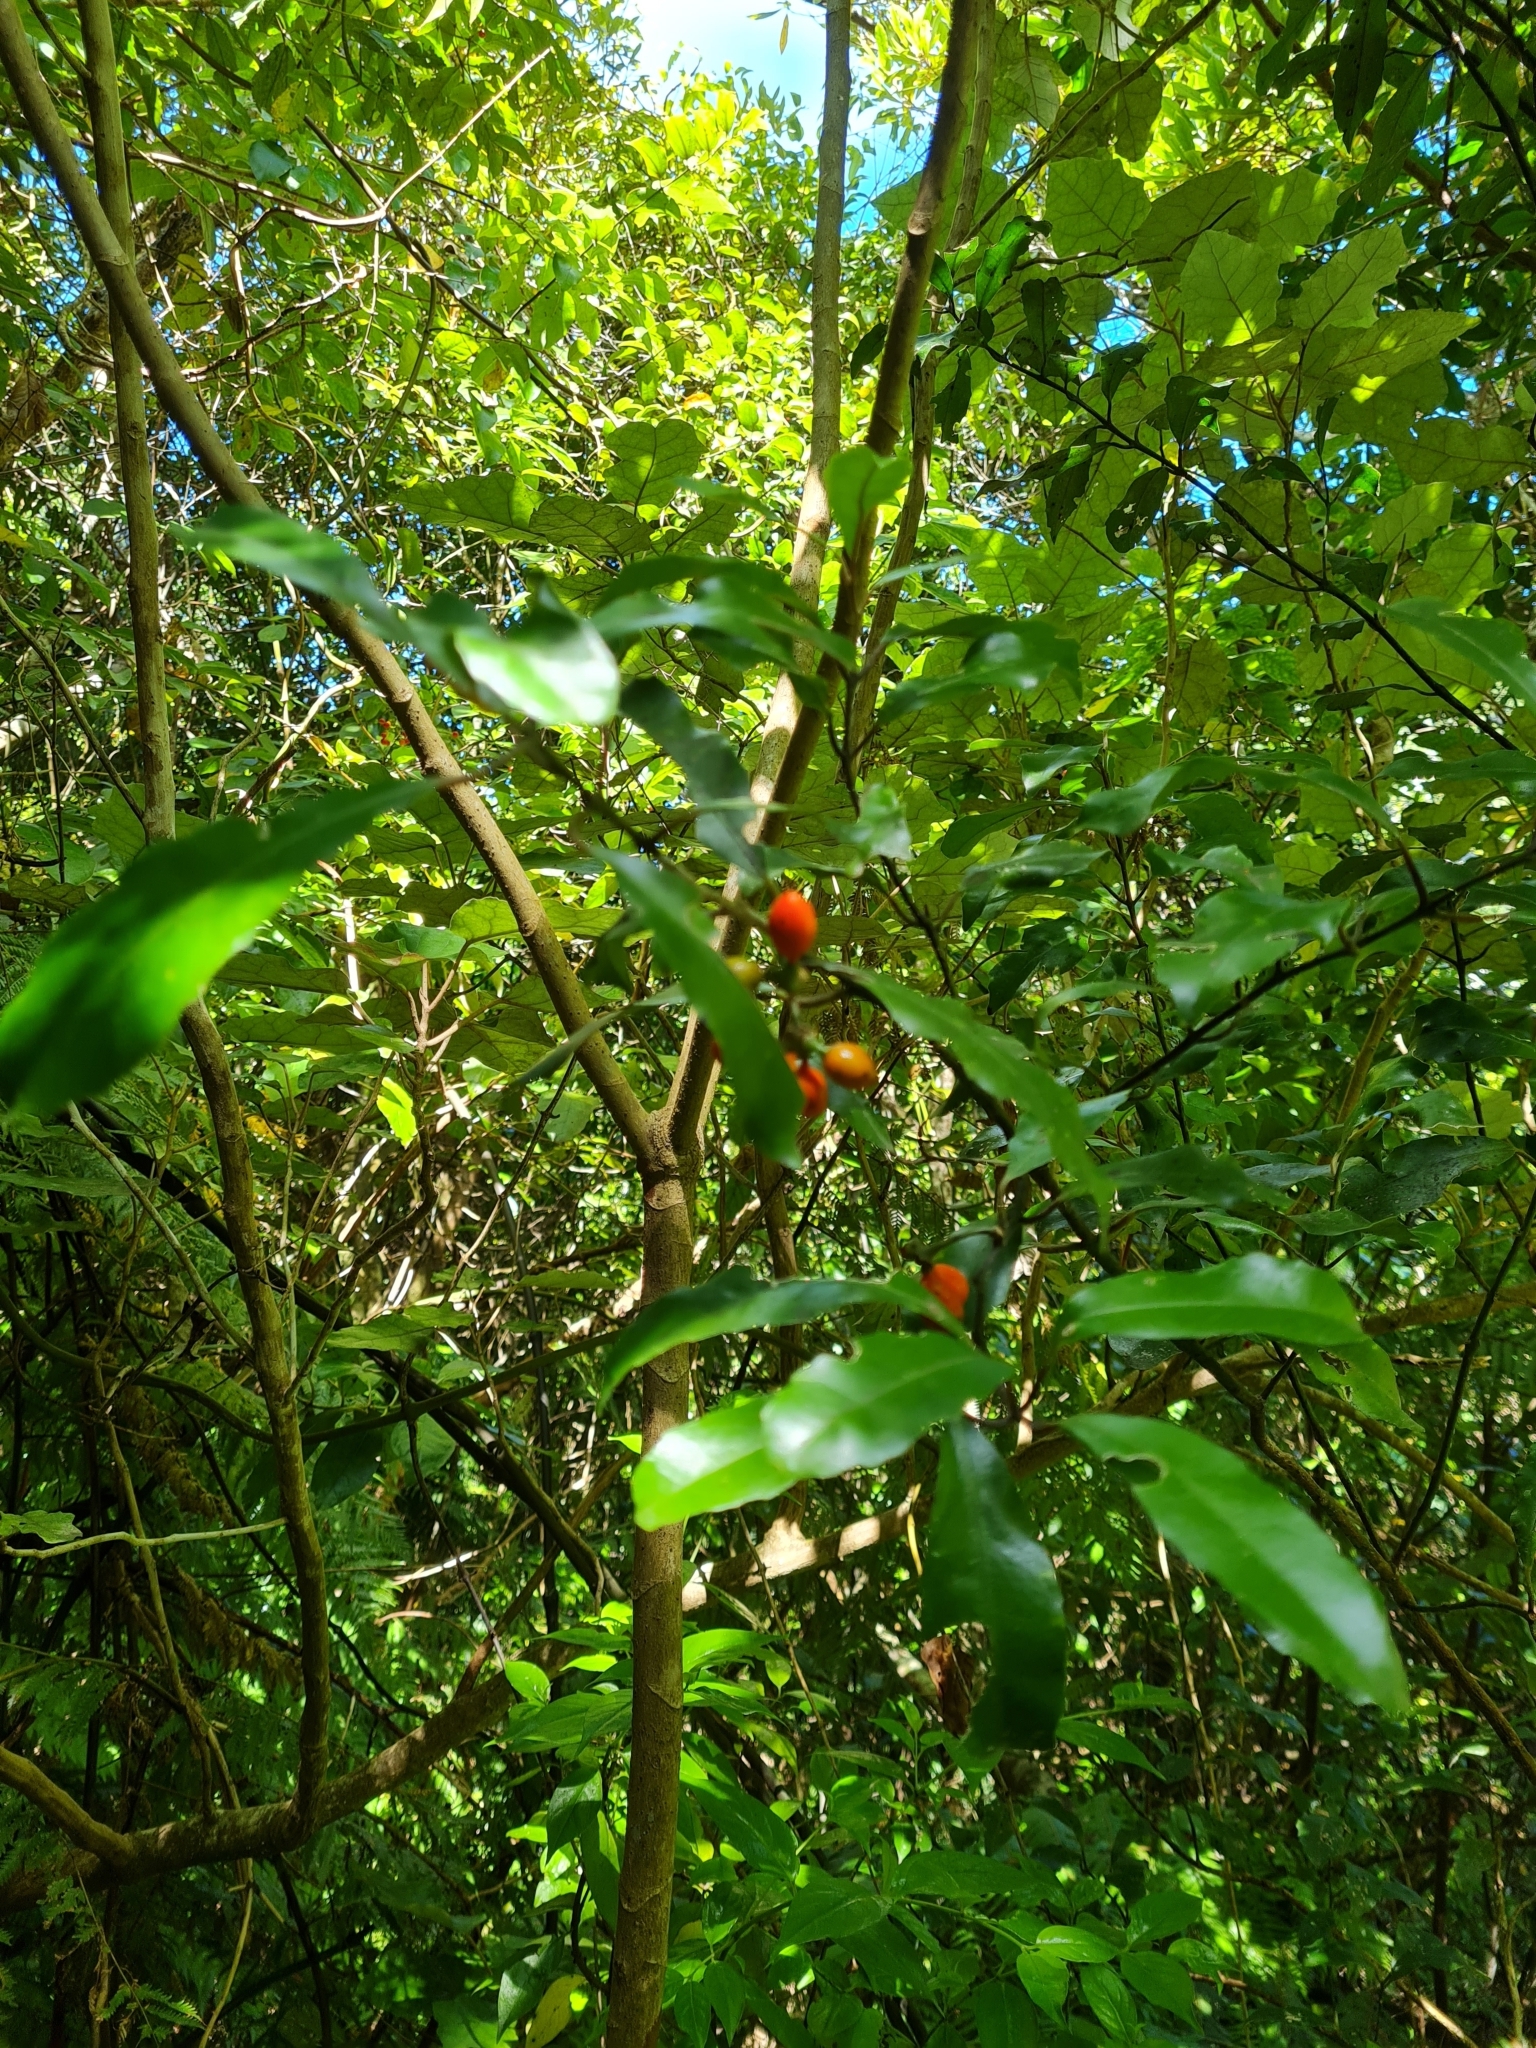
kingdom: Plantae
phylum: Tracheophyta
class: Magnoliopsida
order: Laurales
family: Monimiaceae
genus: Hedycarya
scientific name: Hedycarya arborea
